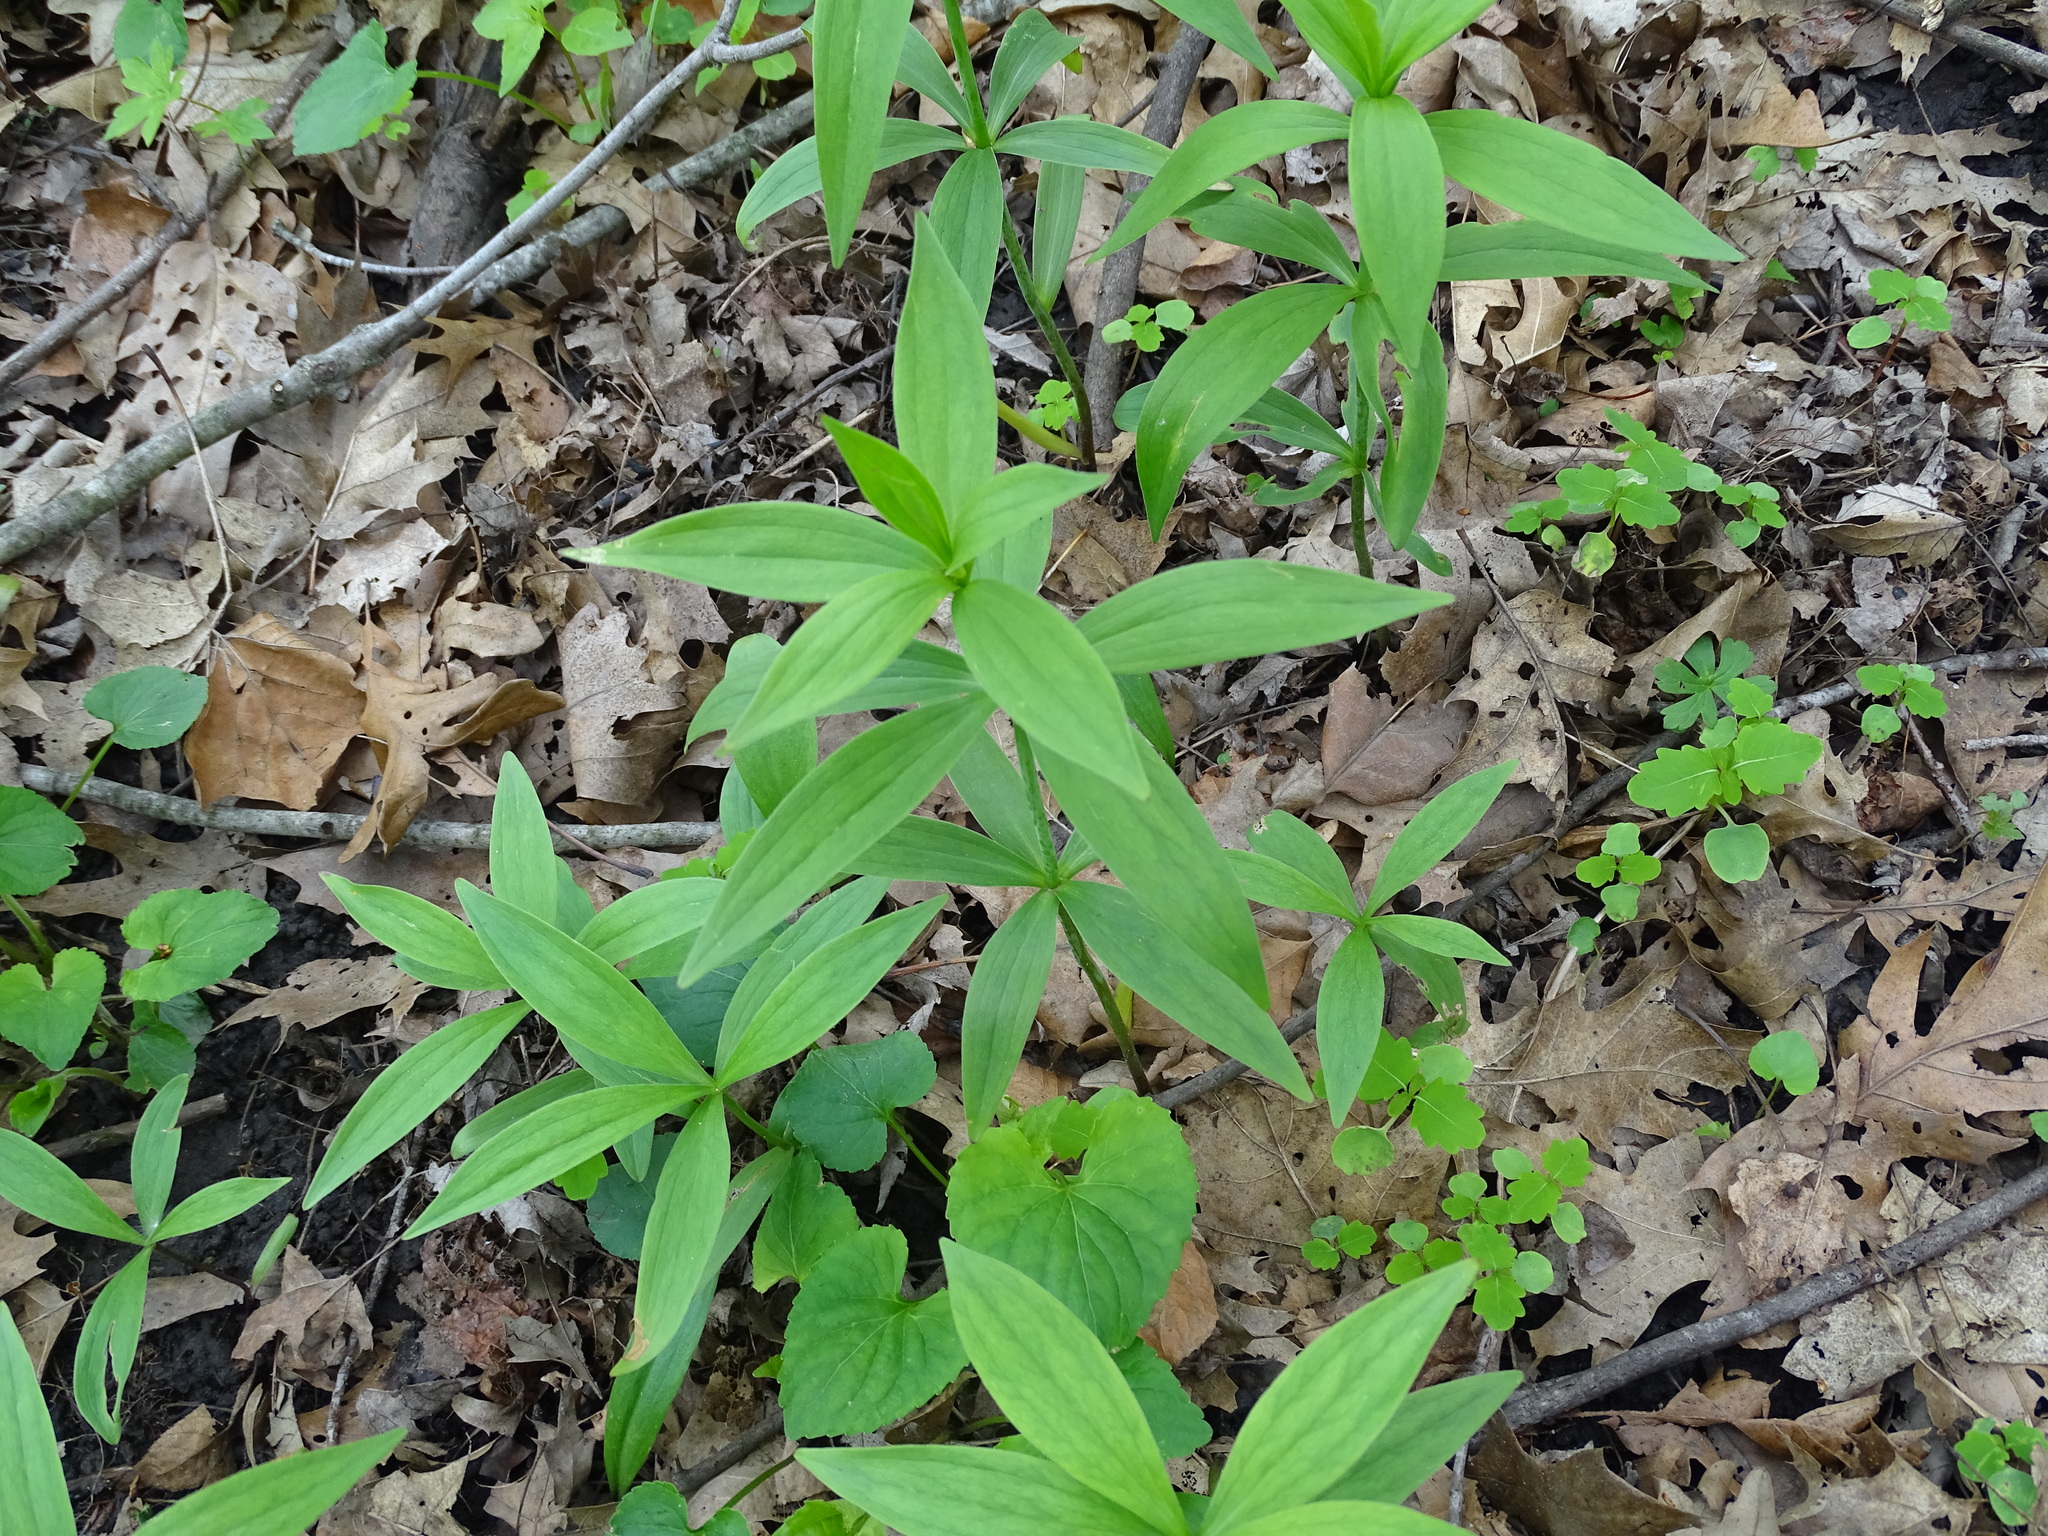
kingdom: Plantae
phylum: Tracheophyta
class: Liliopsida
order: Liliales
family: Liliaceae
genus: Lilium
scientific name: Lilium michiganense
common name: Michigan lily
